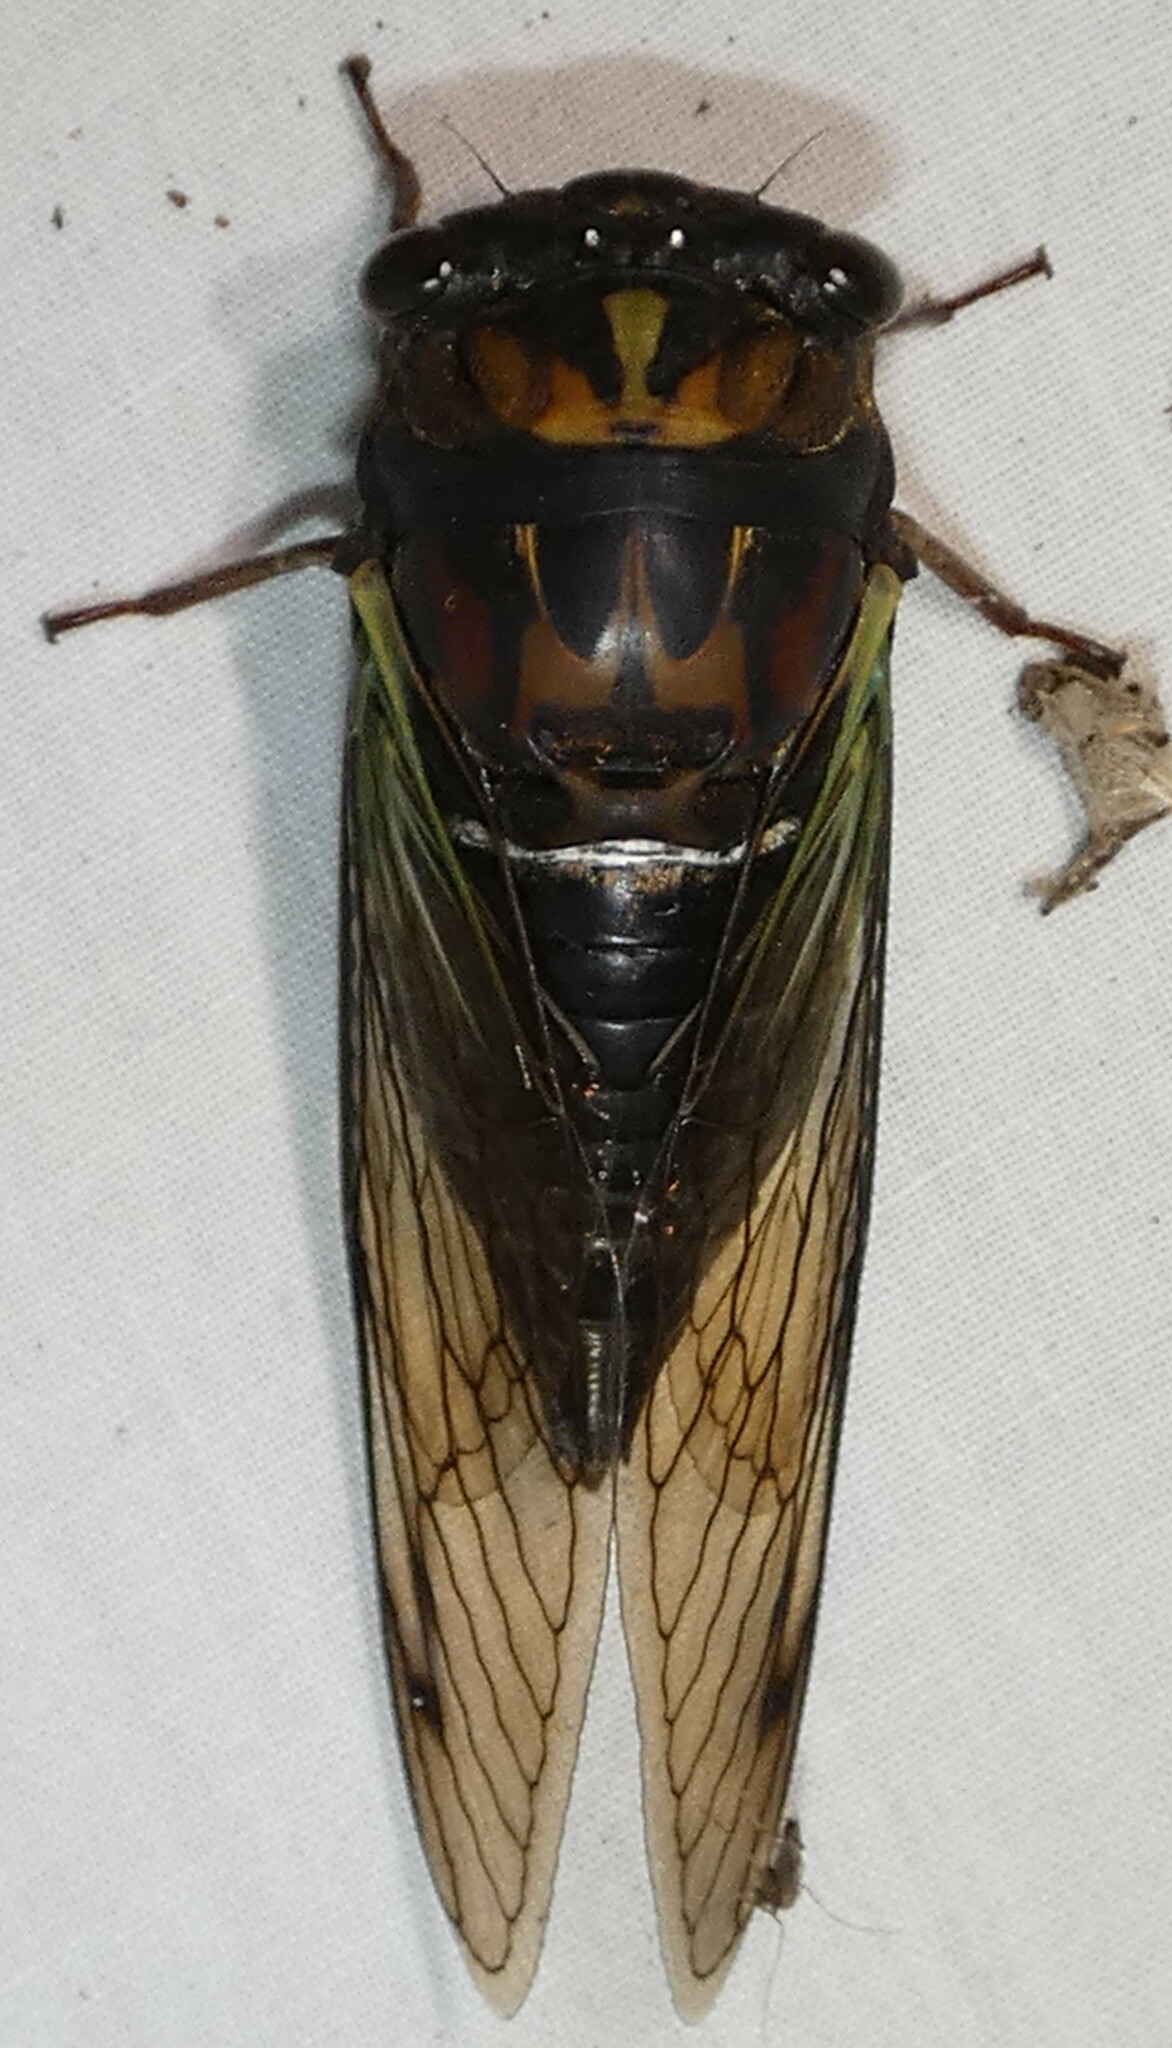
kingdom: Animalia
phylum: Arthropoda
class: Insecta
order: Hemiptera
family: Cicadidae
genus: Neotibicen
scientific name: Neotibicen lyricen
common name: Lyric cicada
